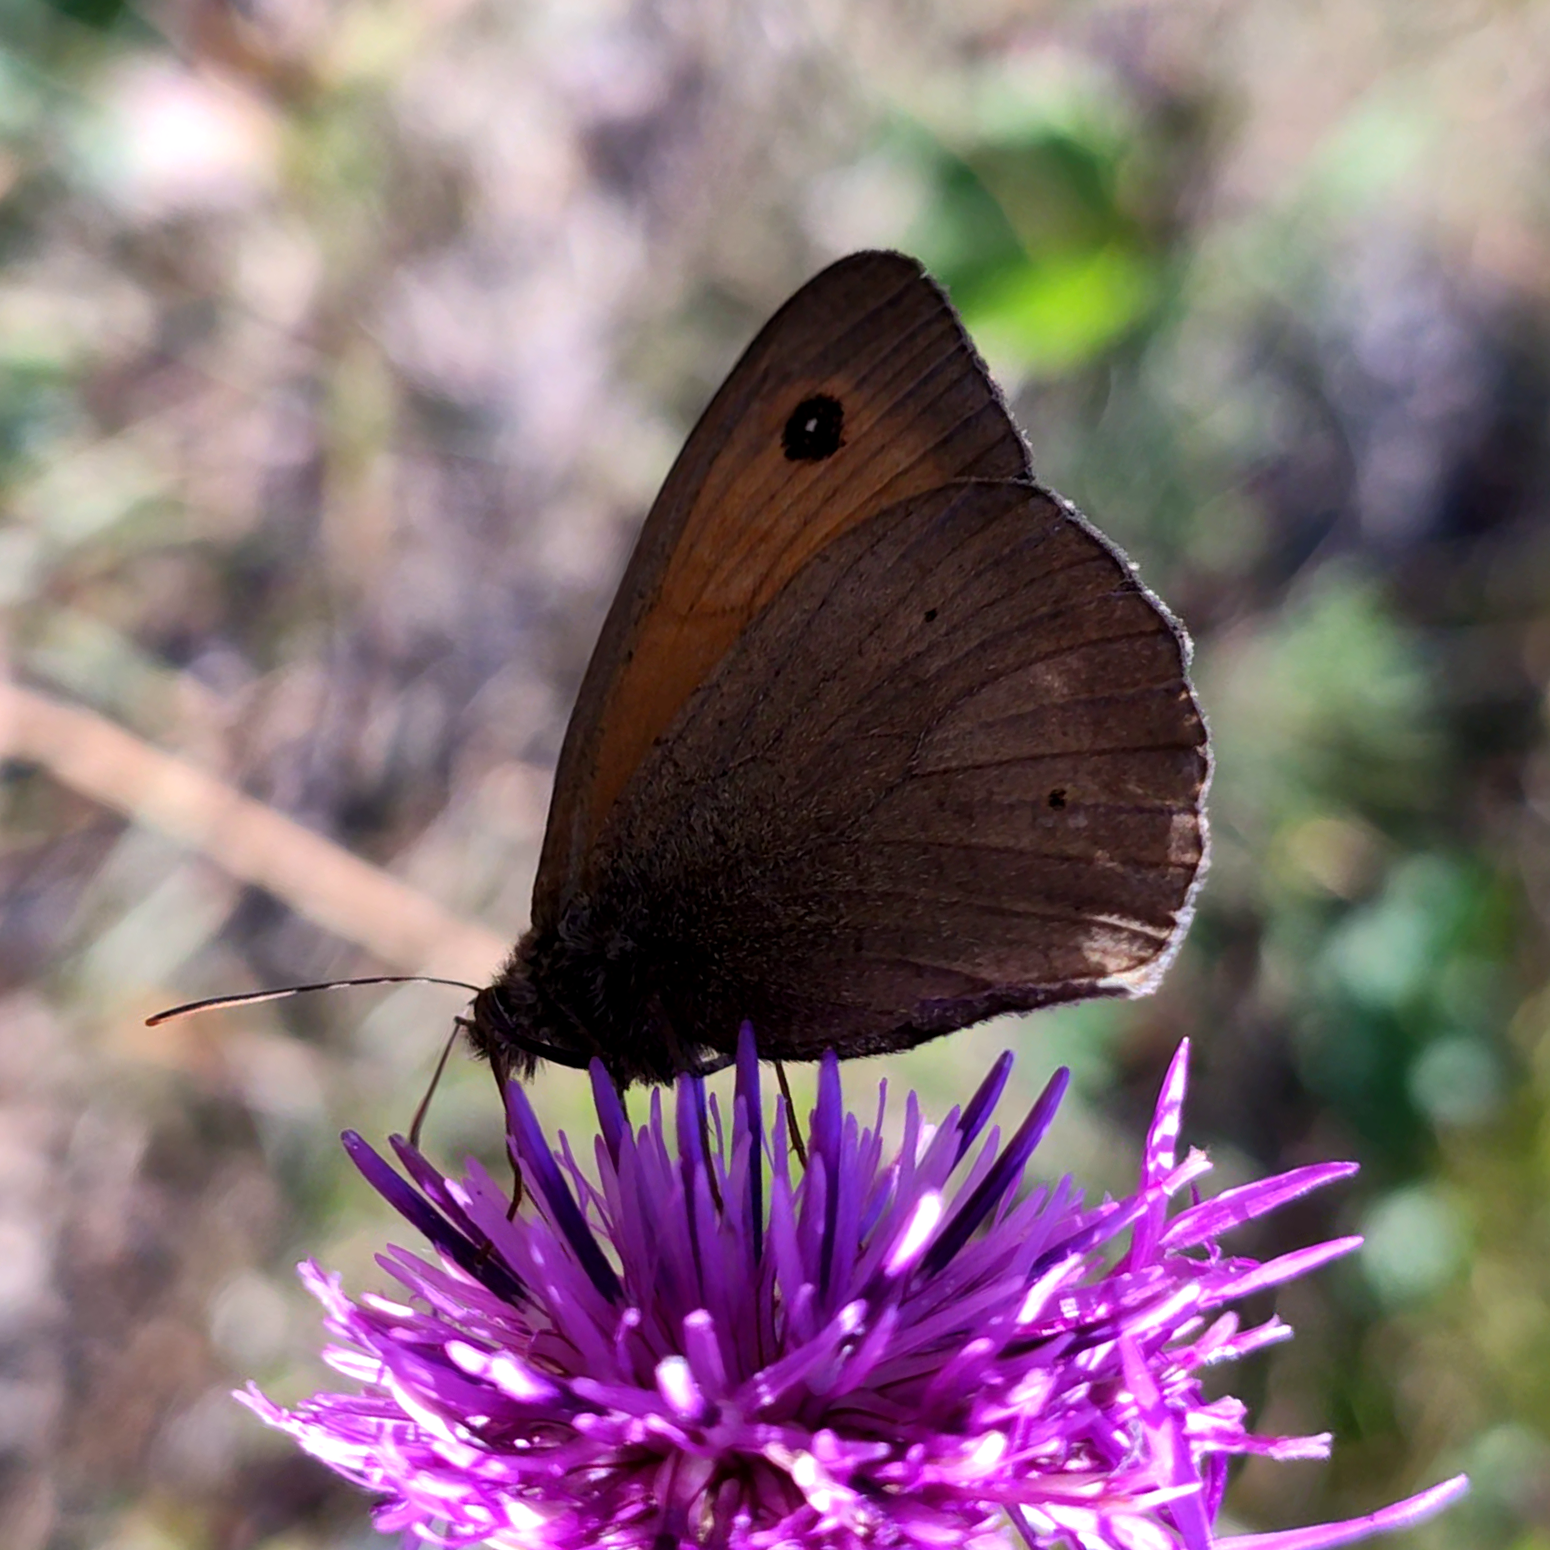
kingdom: Animalia
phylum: Arthropoda
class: Insecta
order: Lepidoptera
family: Nymphalidae
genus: Maniola
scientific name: Maniola jurtina
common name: Meadow brown
